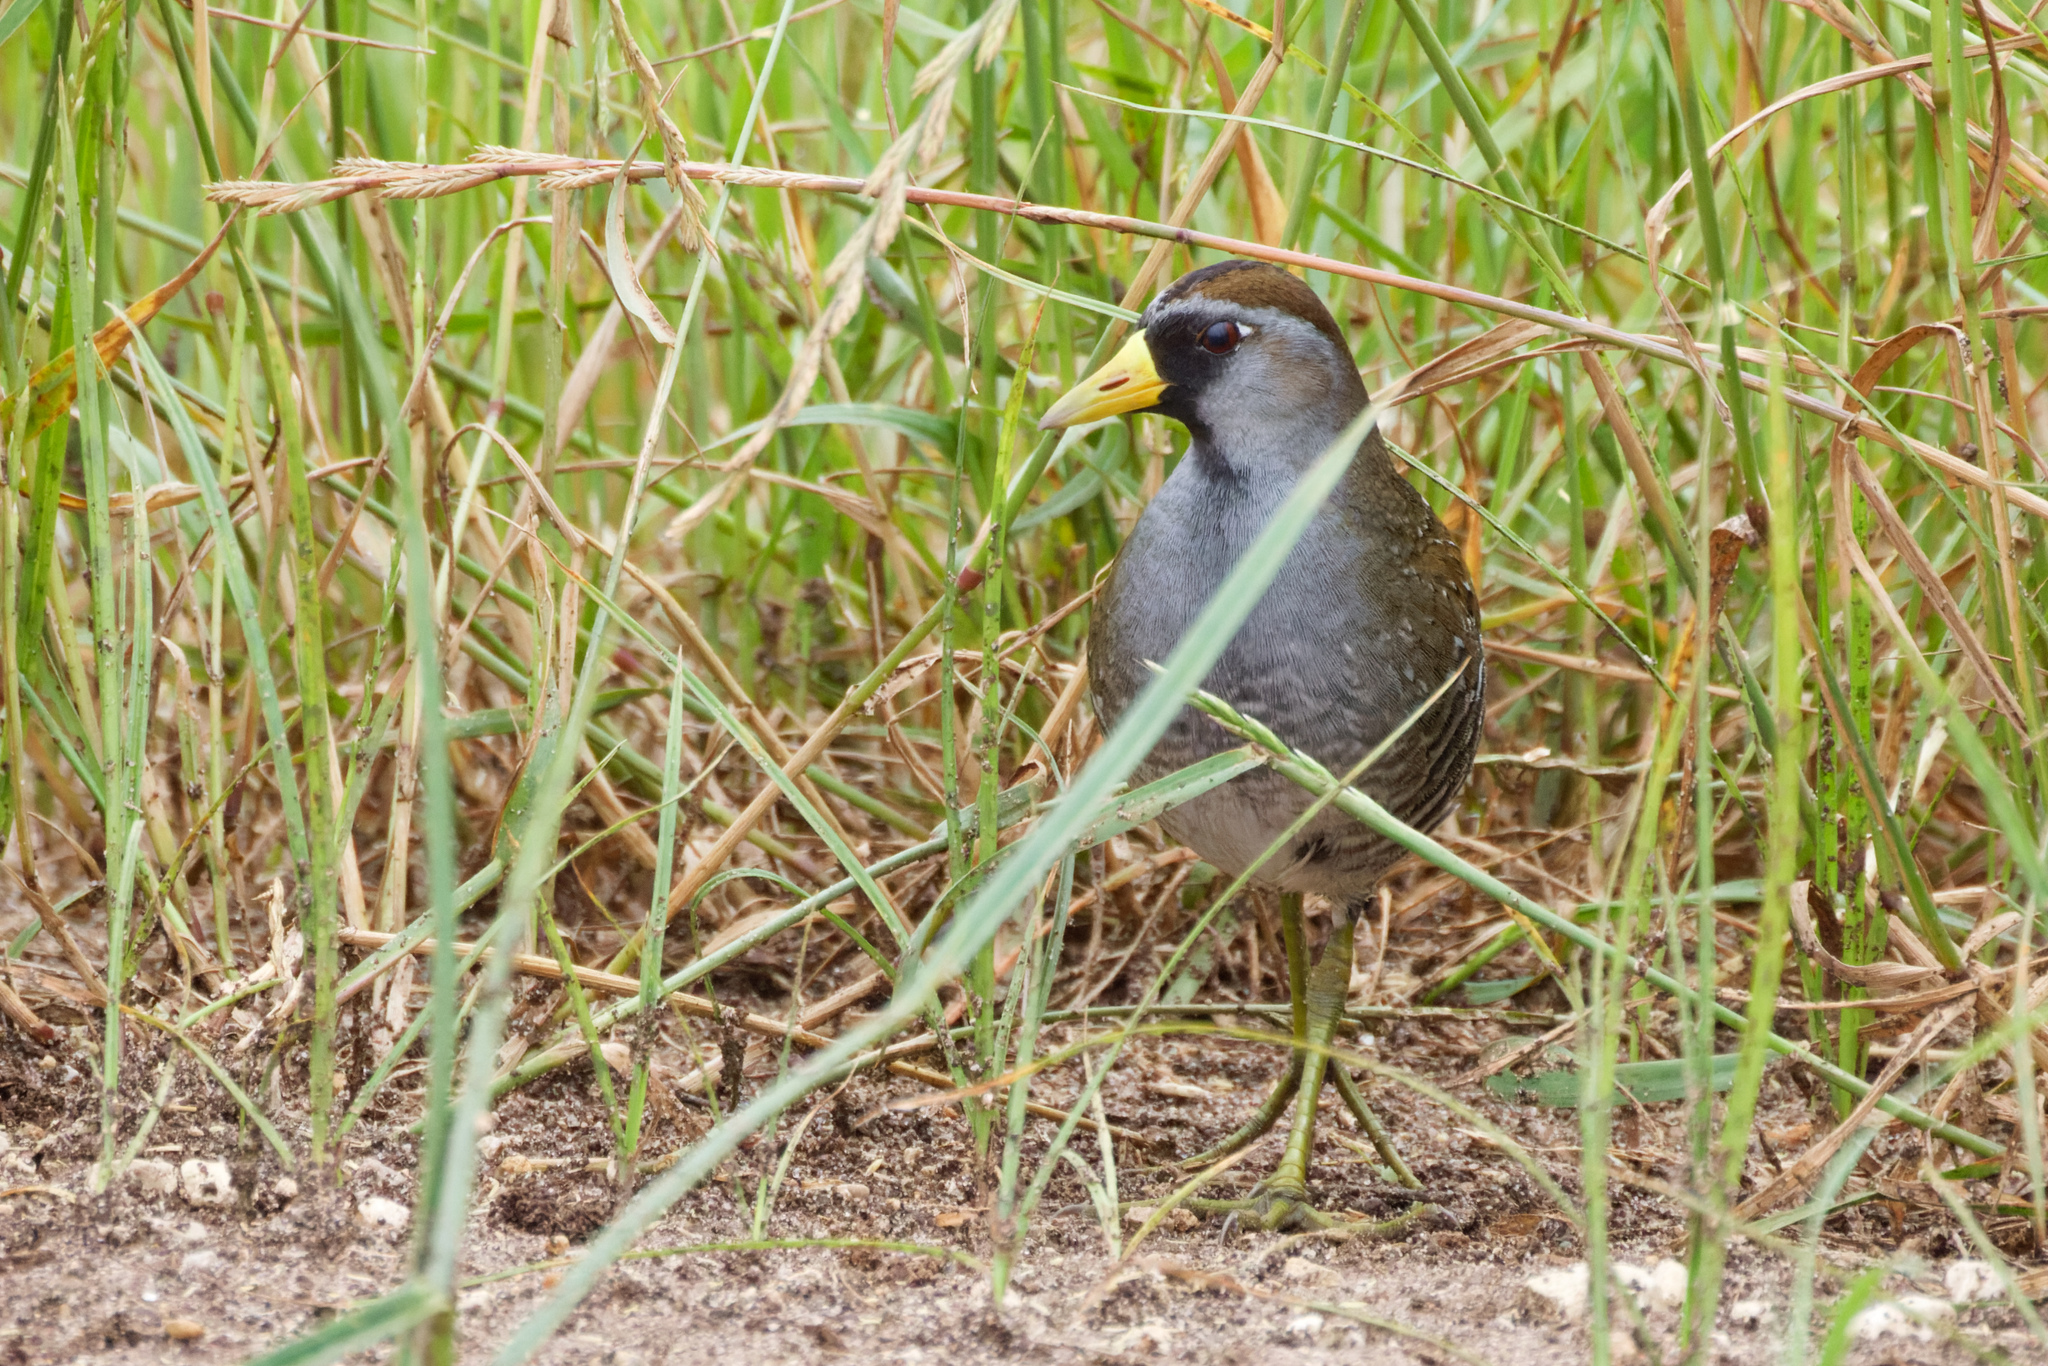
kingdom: Animalia
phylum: Chordata
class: Aves
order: Gruiformes
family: Rallidae
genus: Porzana
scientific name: Porzana carolina
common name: Sora
